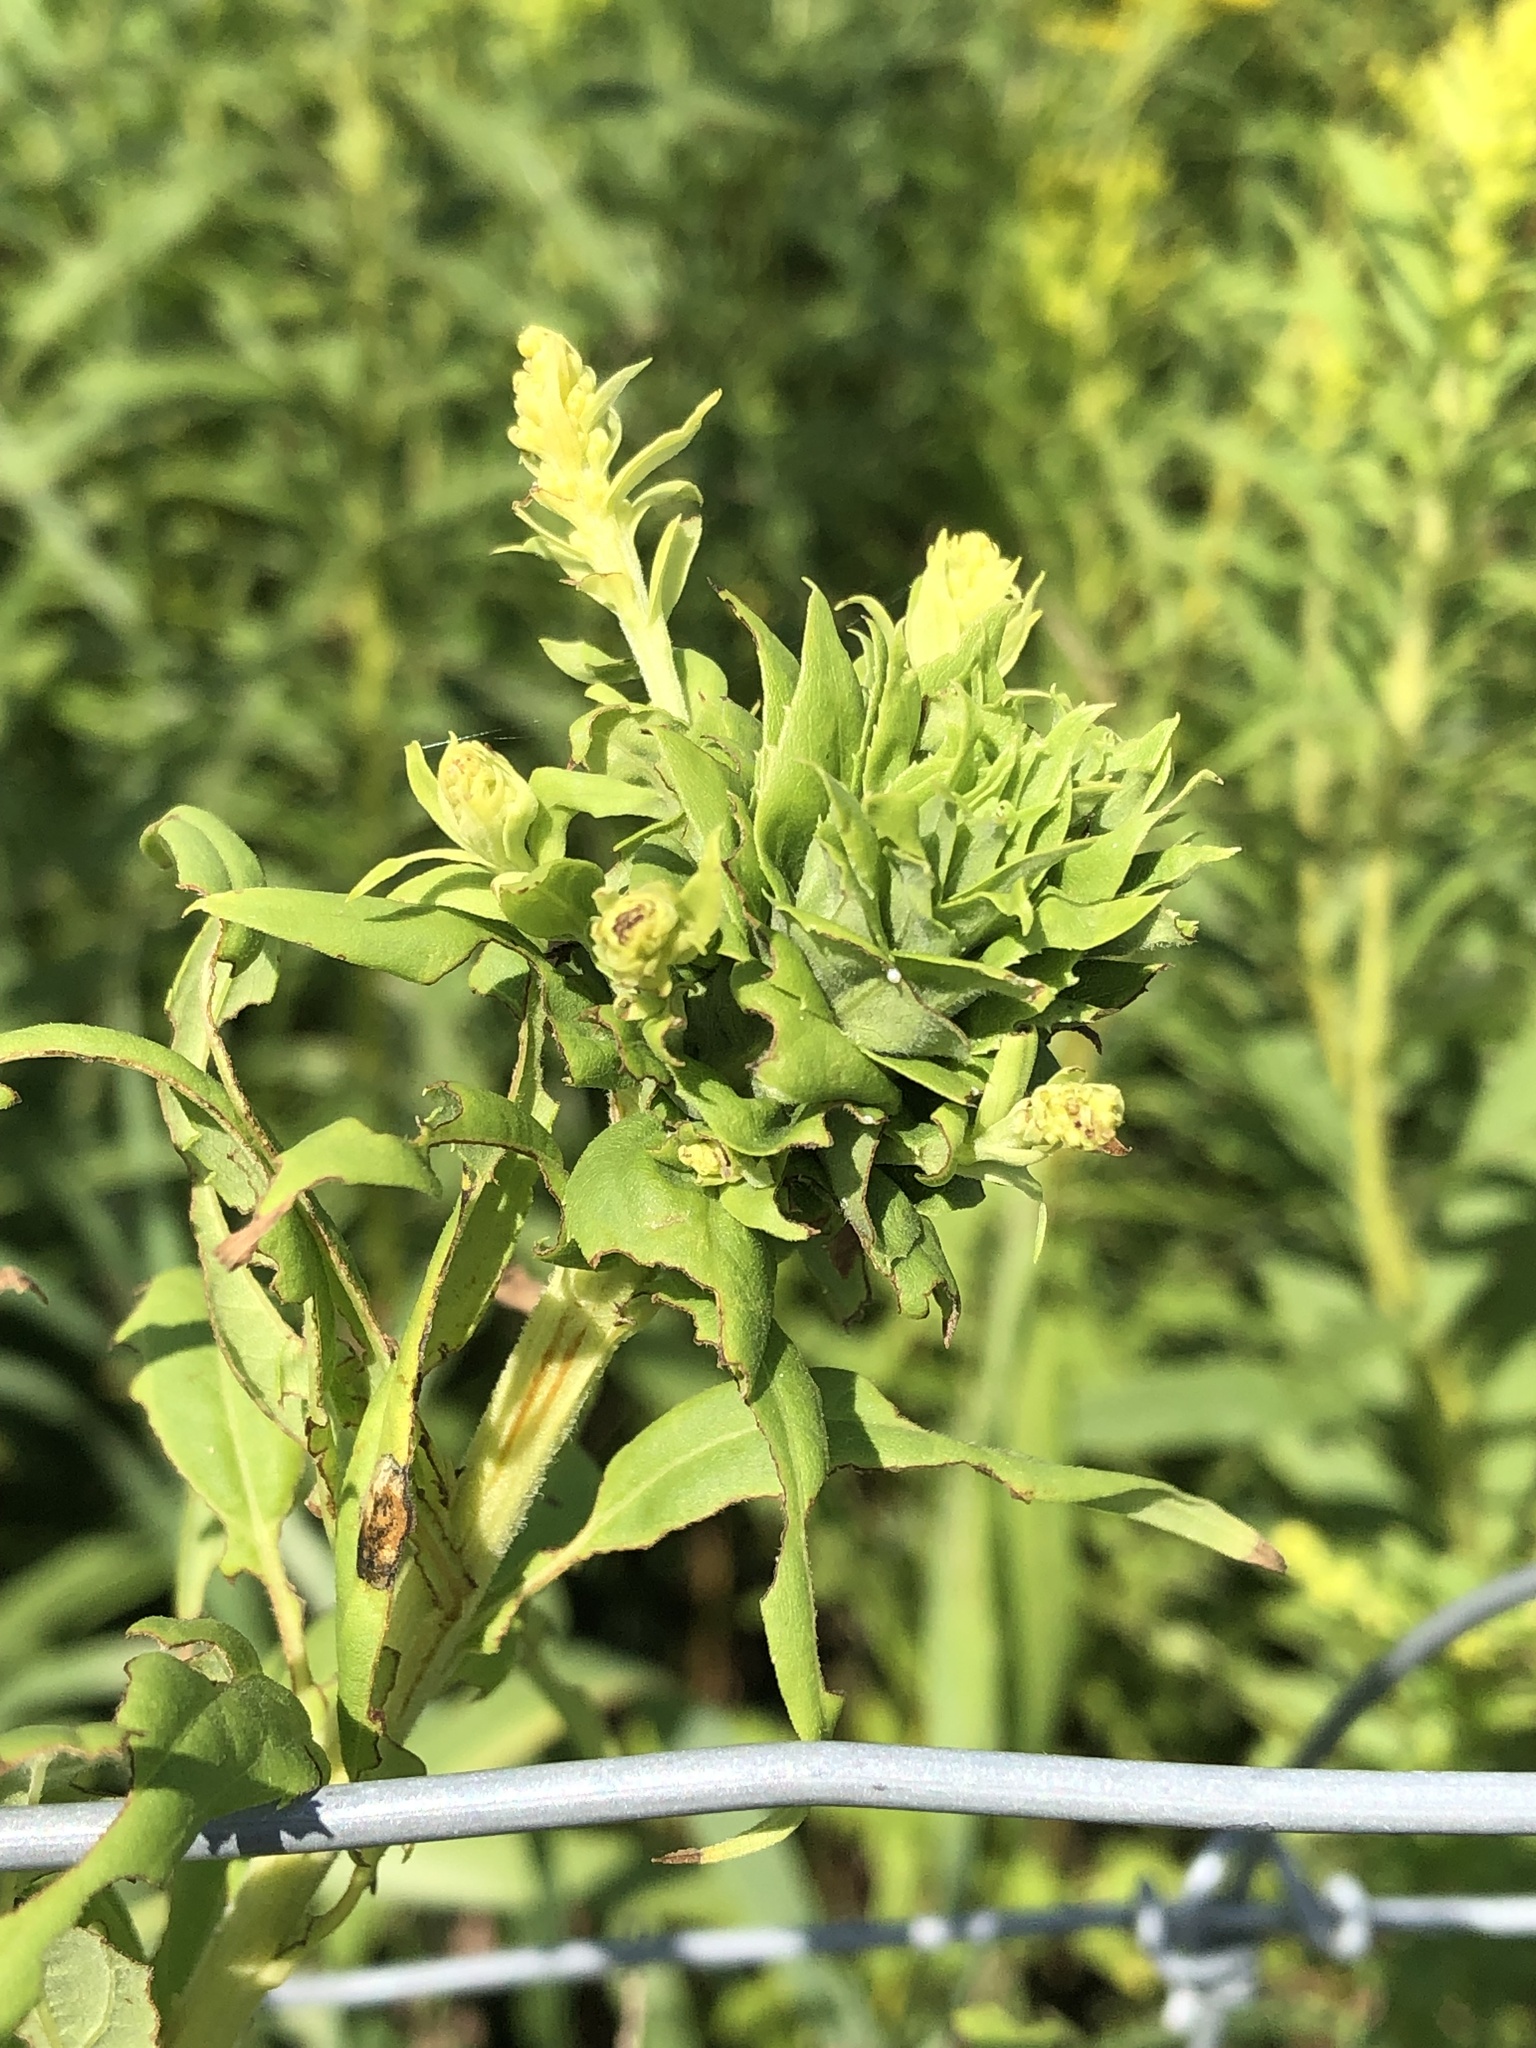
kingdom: Animalia
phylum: Arthropoda
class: Insecta
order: Diptera
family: Cecidomyiidae
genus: Rhopalomyia
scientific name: Rhopalomyia solidaginis
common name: Goldenrod bunch gall midge
